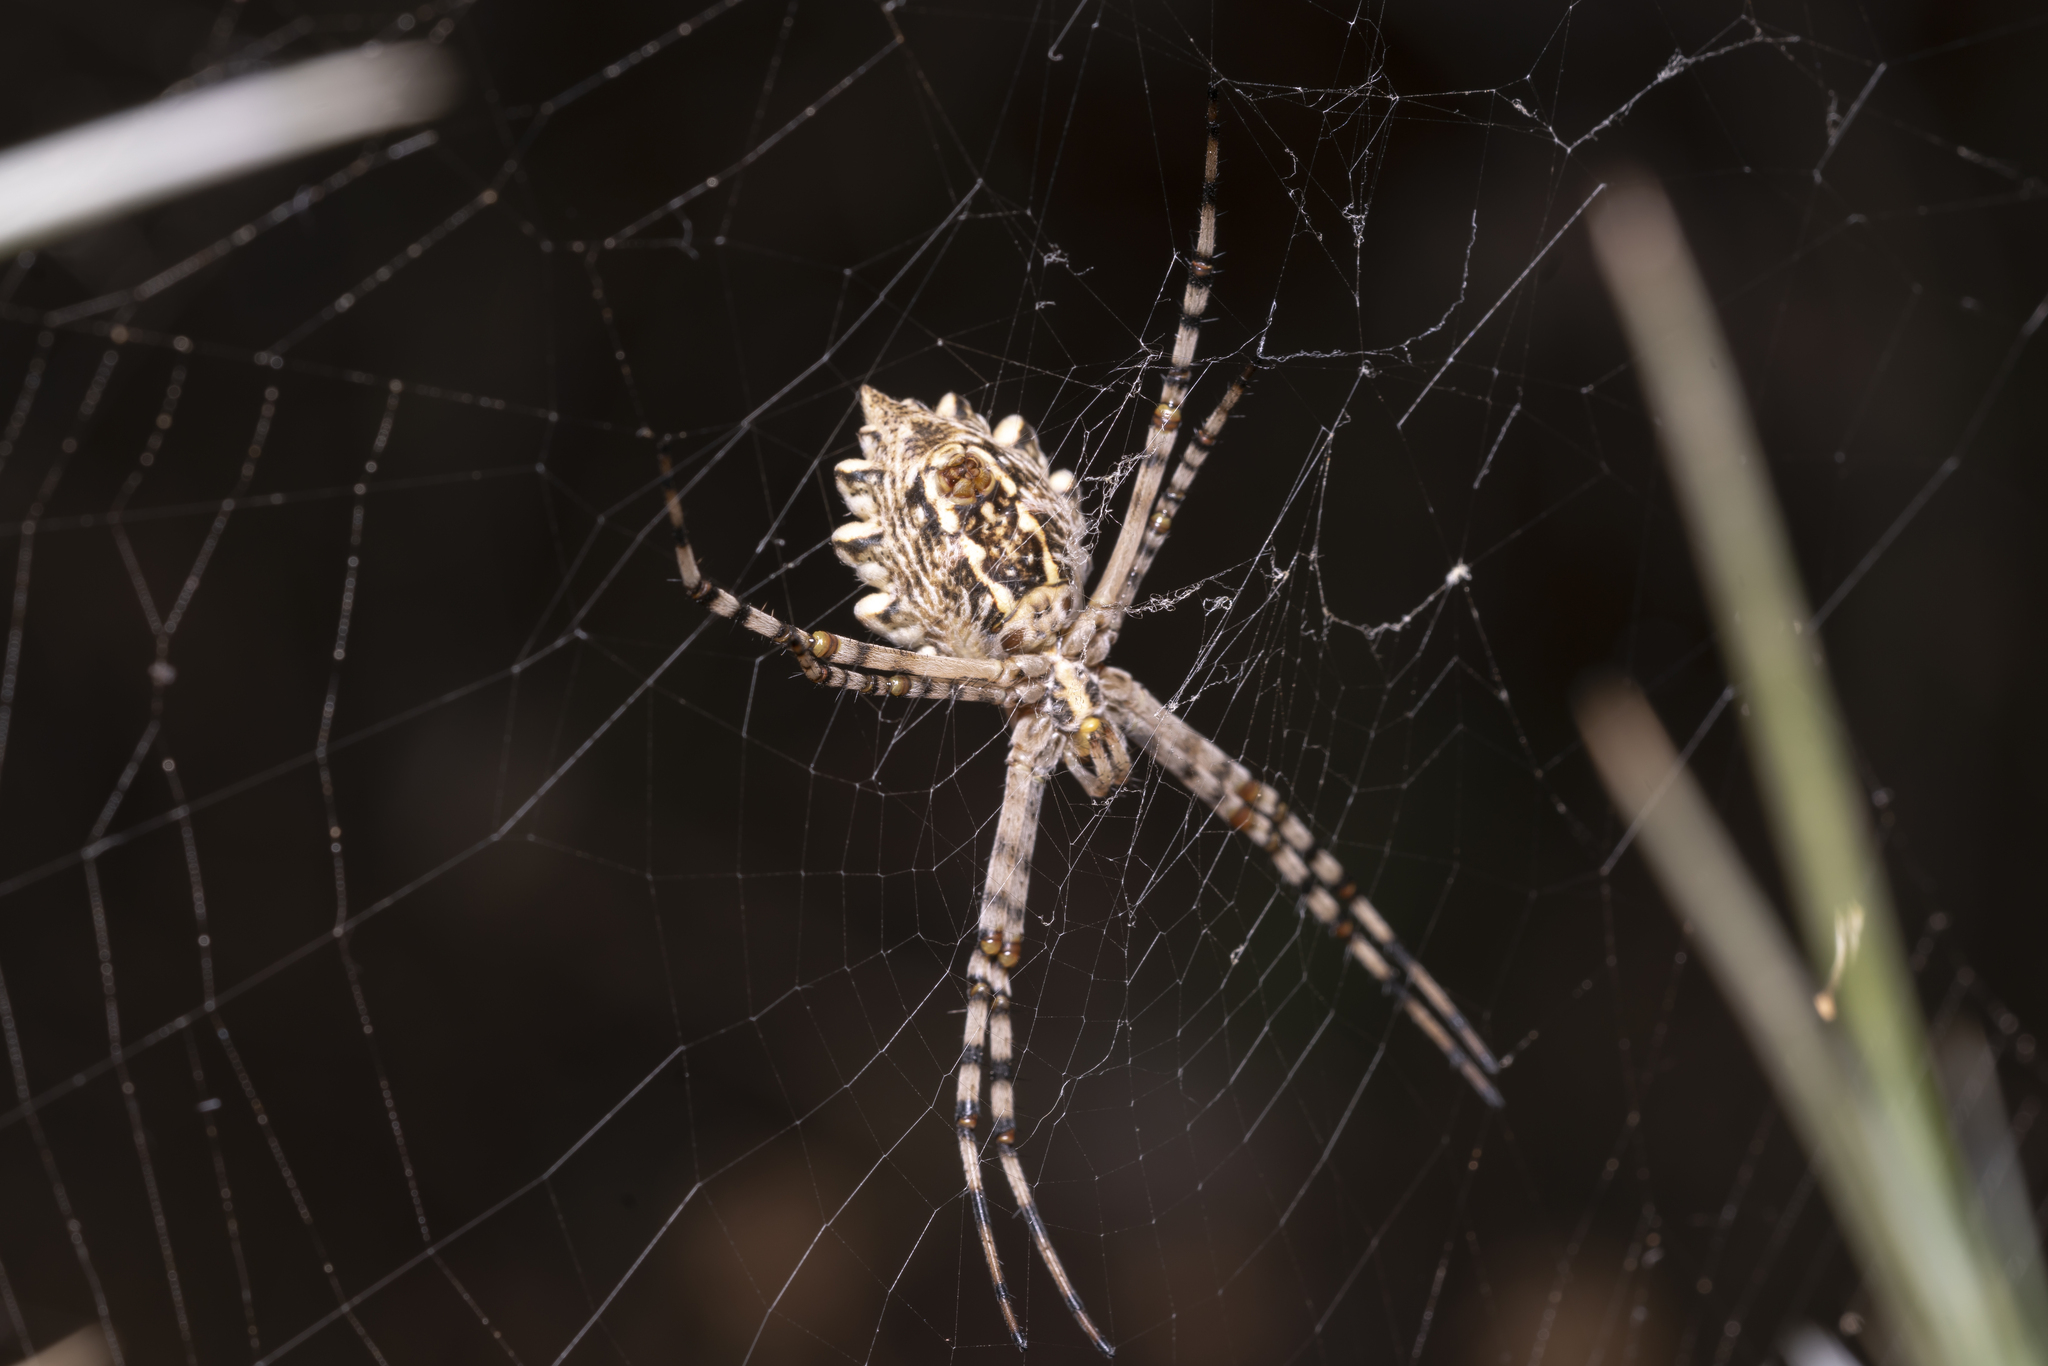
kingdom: Animalia
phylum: Arthropoda
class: Arachnida
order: Araneae
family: Araneidae
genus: Argiope
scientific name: Argiope lobata
